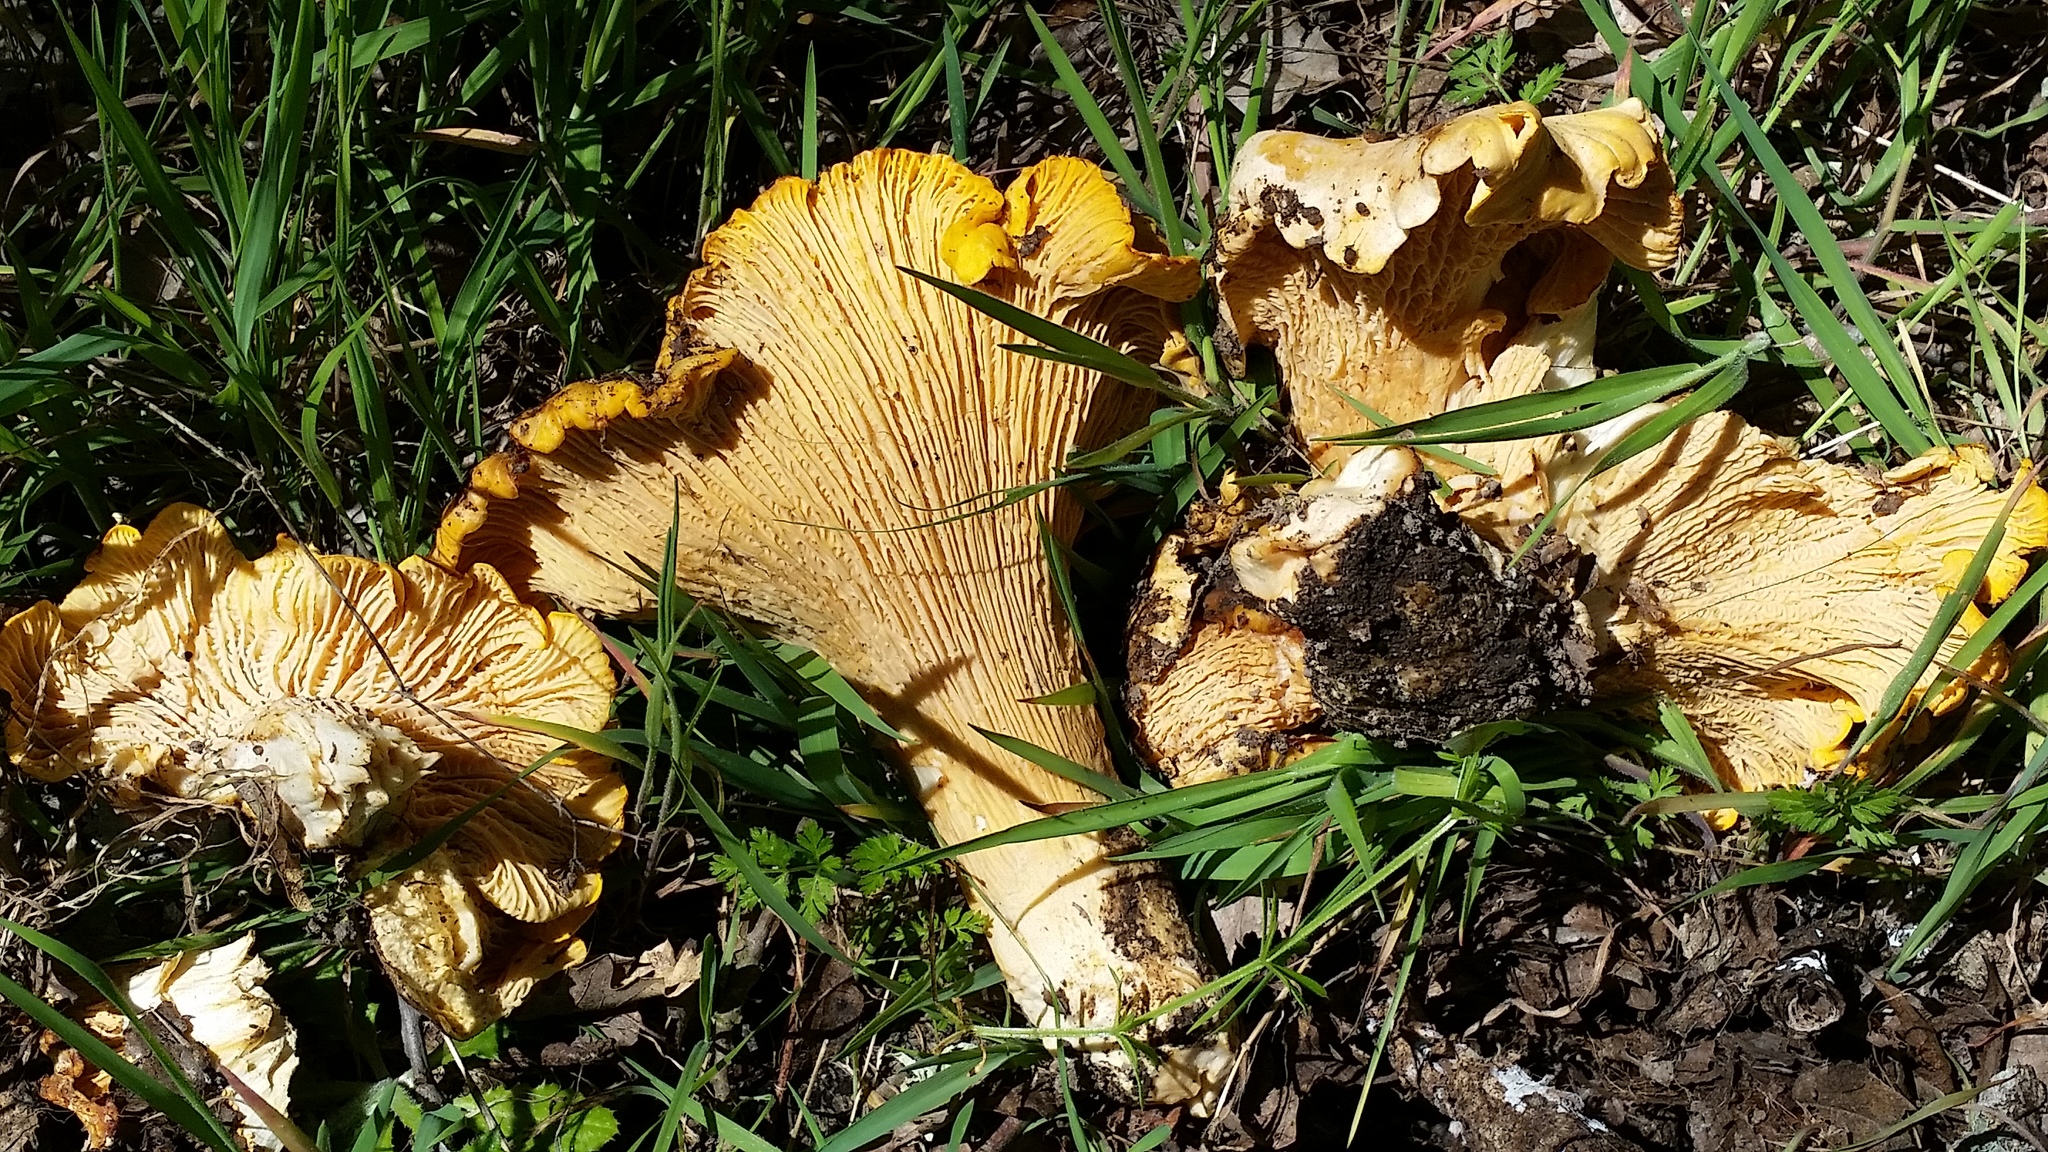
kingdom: Fungi
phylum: Basidiomycota
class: Agaricomycetes
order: Cantharellales
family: Hydnaceae
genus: Cantharellus
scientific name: Cantharellus californicus
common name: California golden chanterelle
